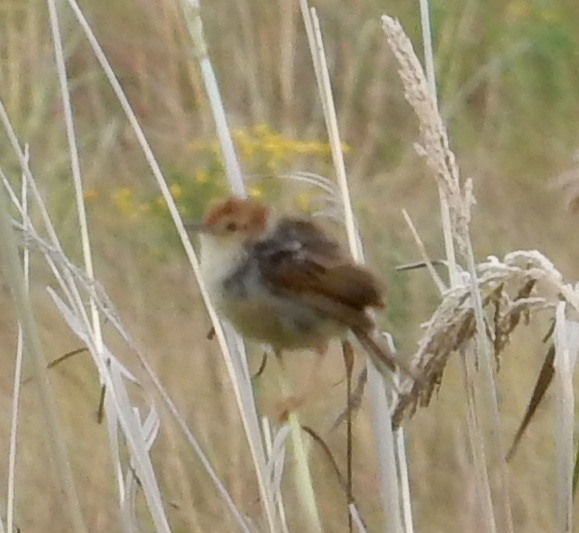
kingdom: Animalia
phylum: Chordata
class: Aves
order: Passeriformes
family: Cisticolidae
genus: Cisticola
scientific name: Cisticola tinniens
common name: Levaillant's cisticola
